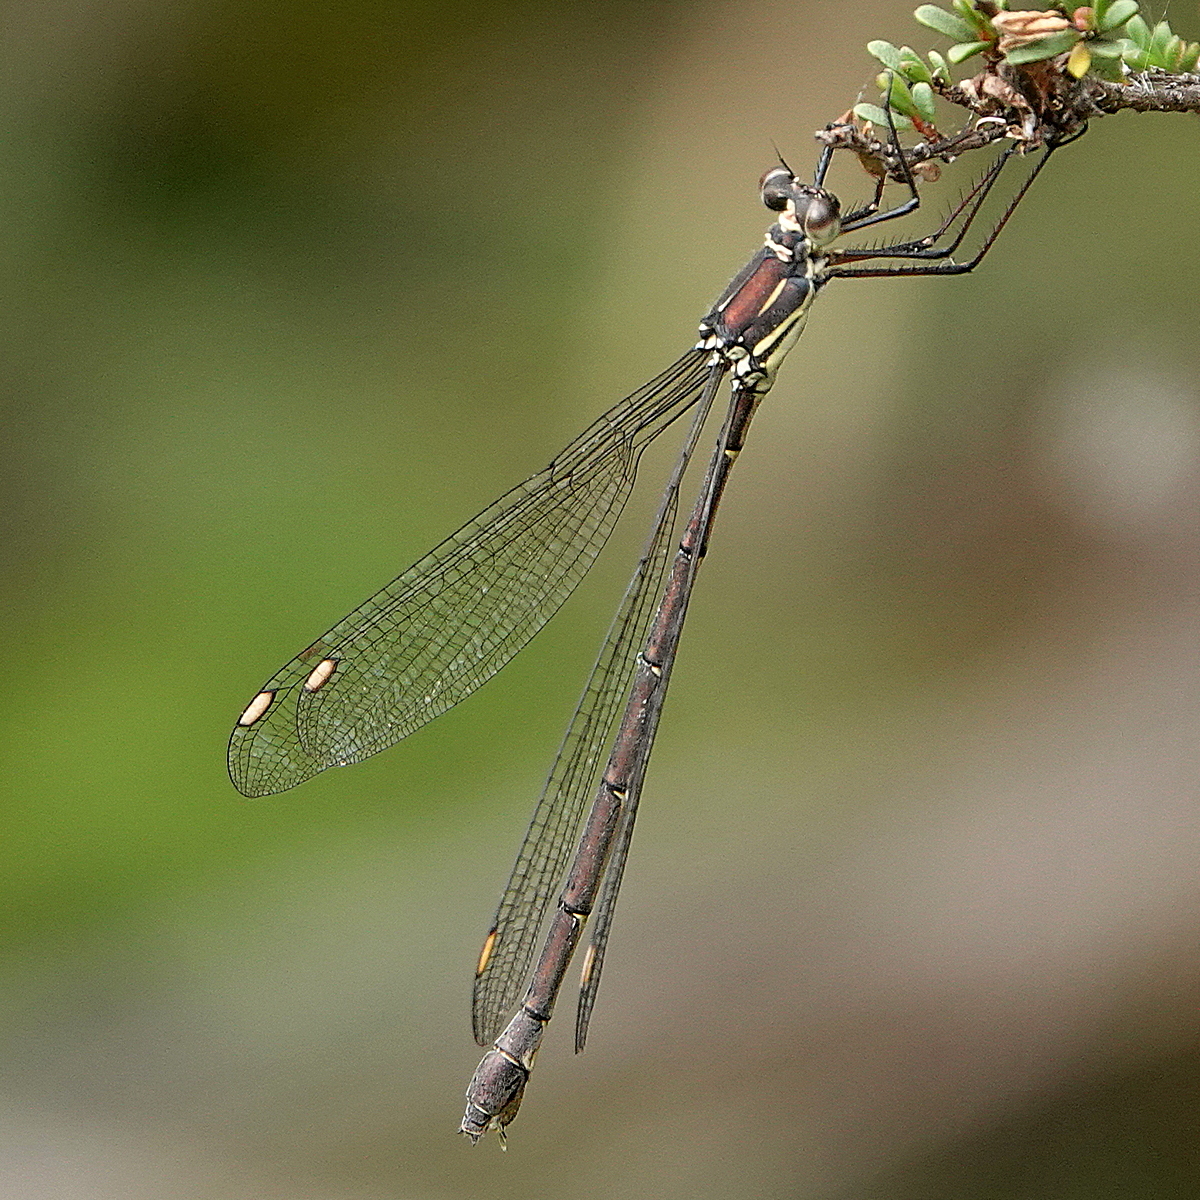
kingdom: Animalia
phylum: Arthropoda
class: Insecta
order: Odonata
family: Synlestidae
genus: Synlestes
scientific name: Synlestes weyersii
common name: Bronze needle
